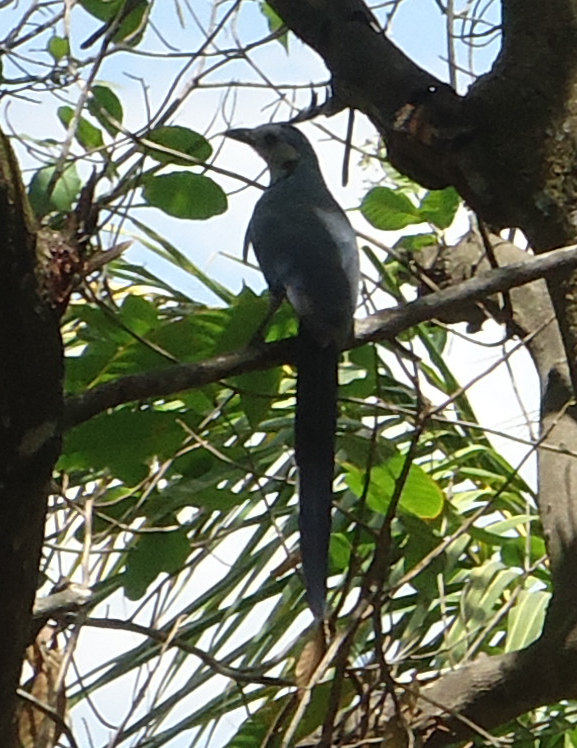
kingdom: Animalia
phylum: Chordata
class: Aves
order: Passeriformes
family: Corvidae
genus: Calocitta
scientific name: Calocitta formosa
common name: White-throated magpie-jay
